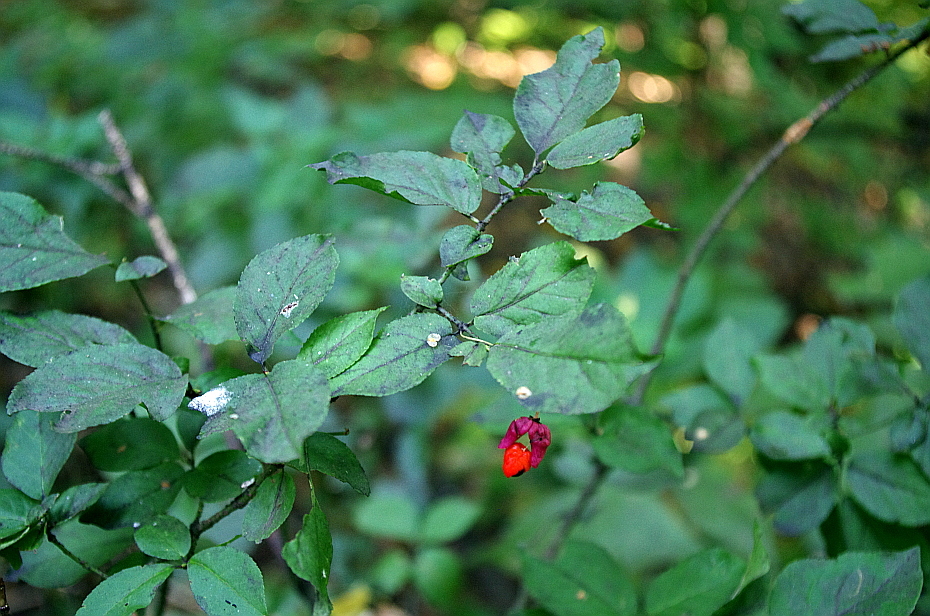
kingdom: Plantae
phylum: Tracheophyta
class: Magnoliopsida
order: Celastrales
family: Celastraceae
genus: Euonymus
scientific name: Euonymus verrucosus
